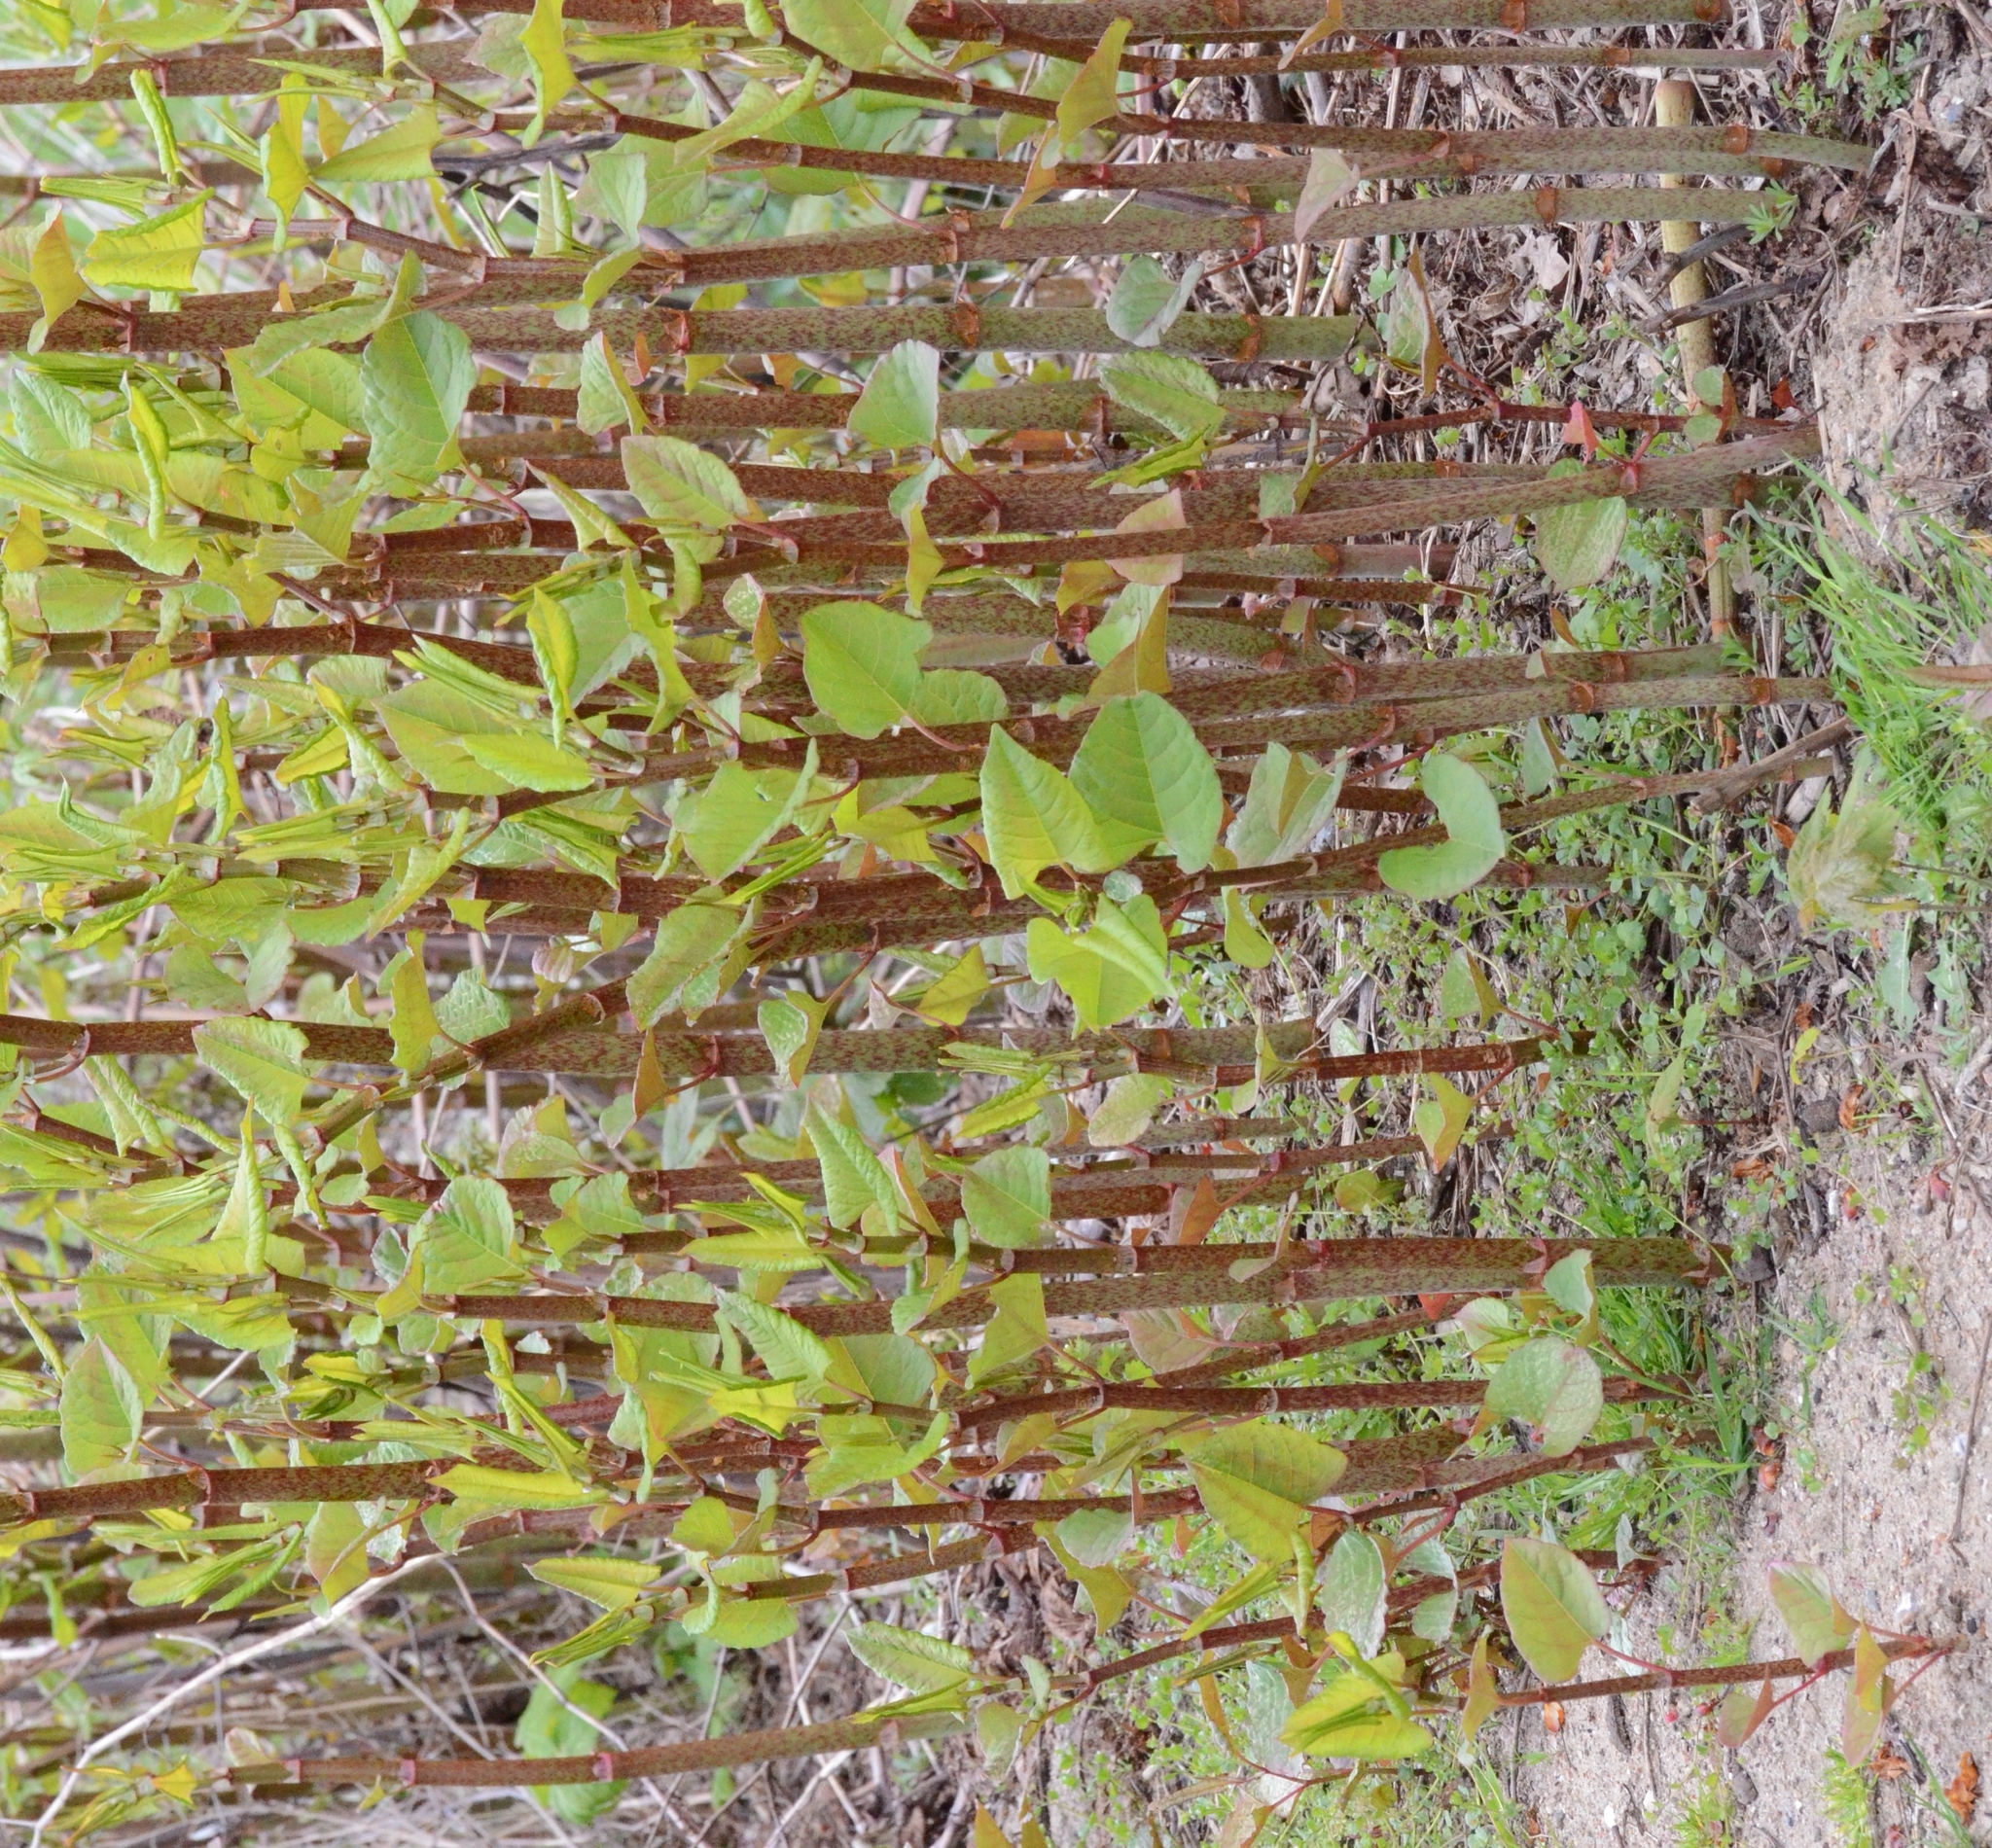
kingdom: Plantae
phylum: Tracheophyta
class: Magnoliopsida
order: Caryophyllales
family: Polygonaceae
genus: Reynoutria
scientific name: Reynoutria japonica
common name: Japanese knotweed
